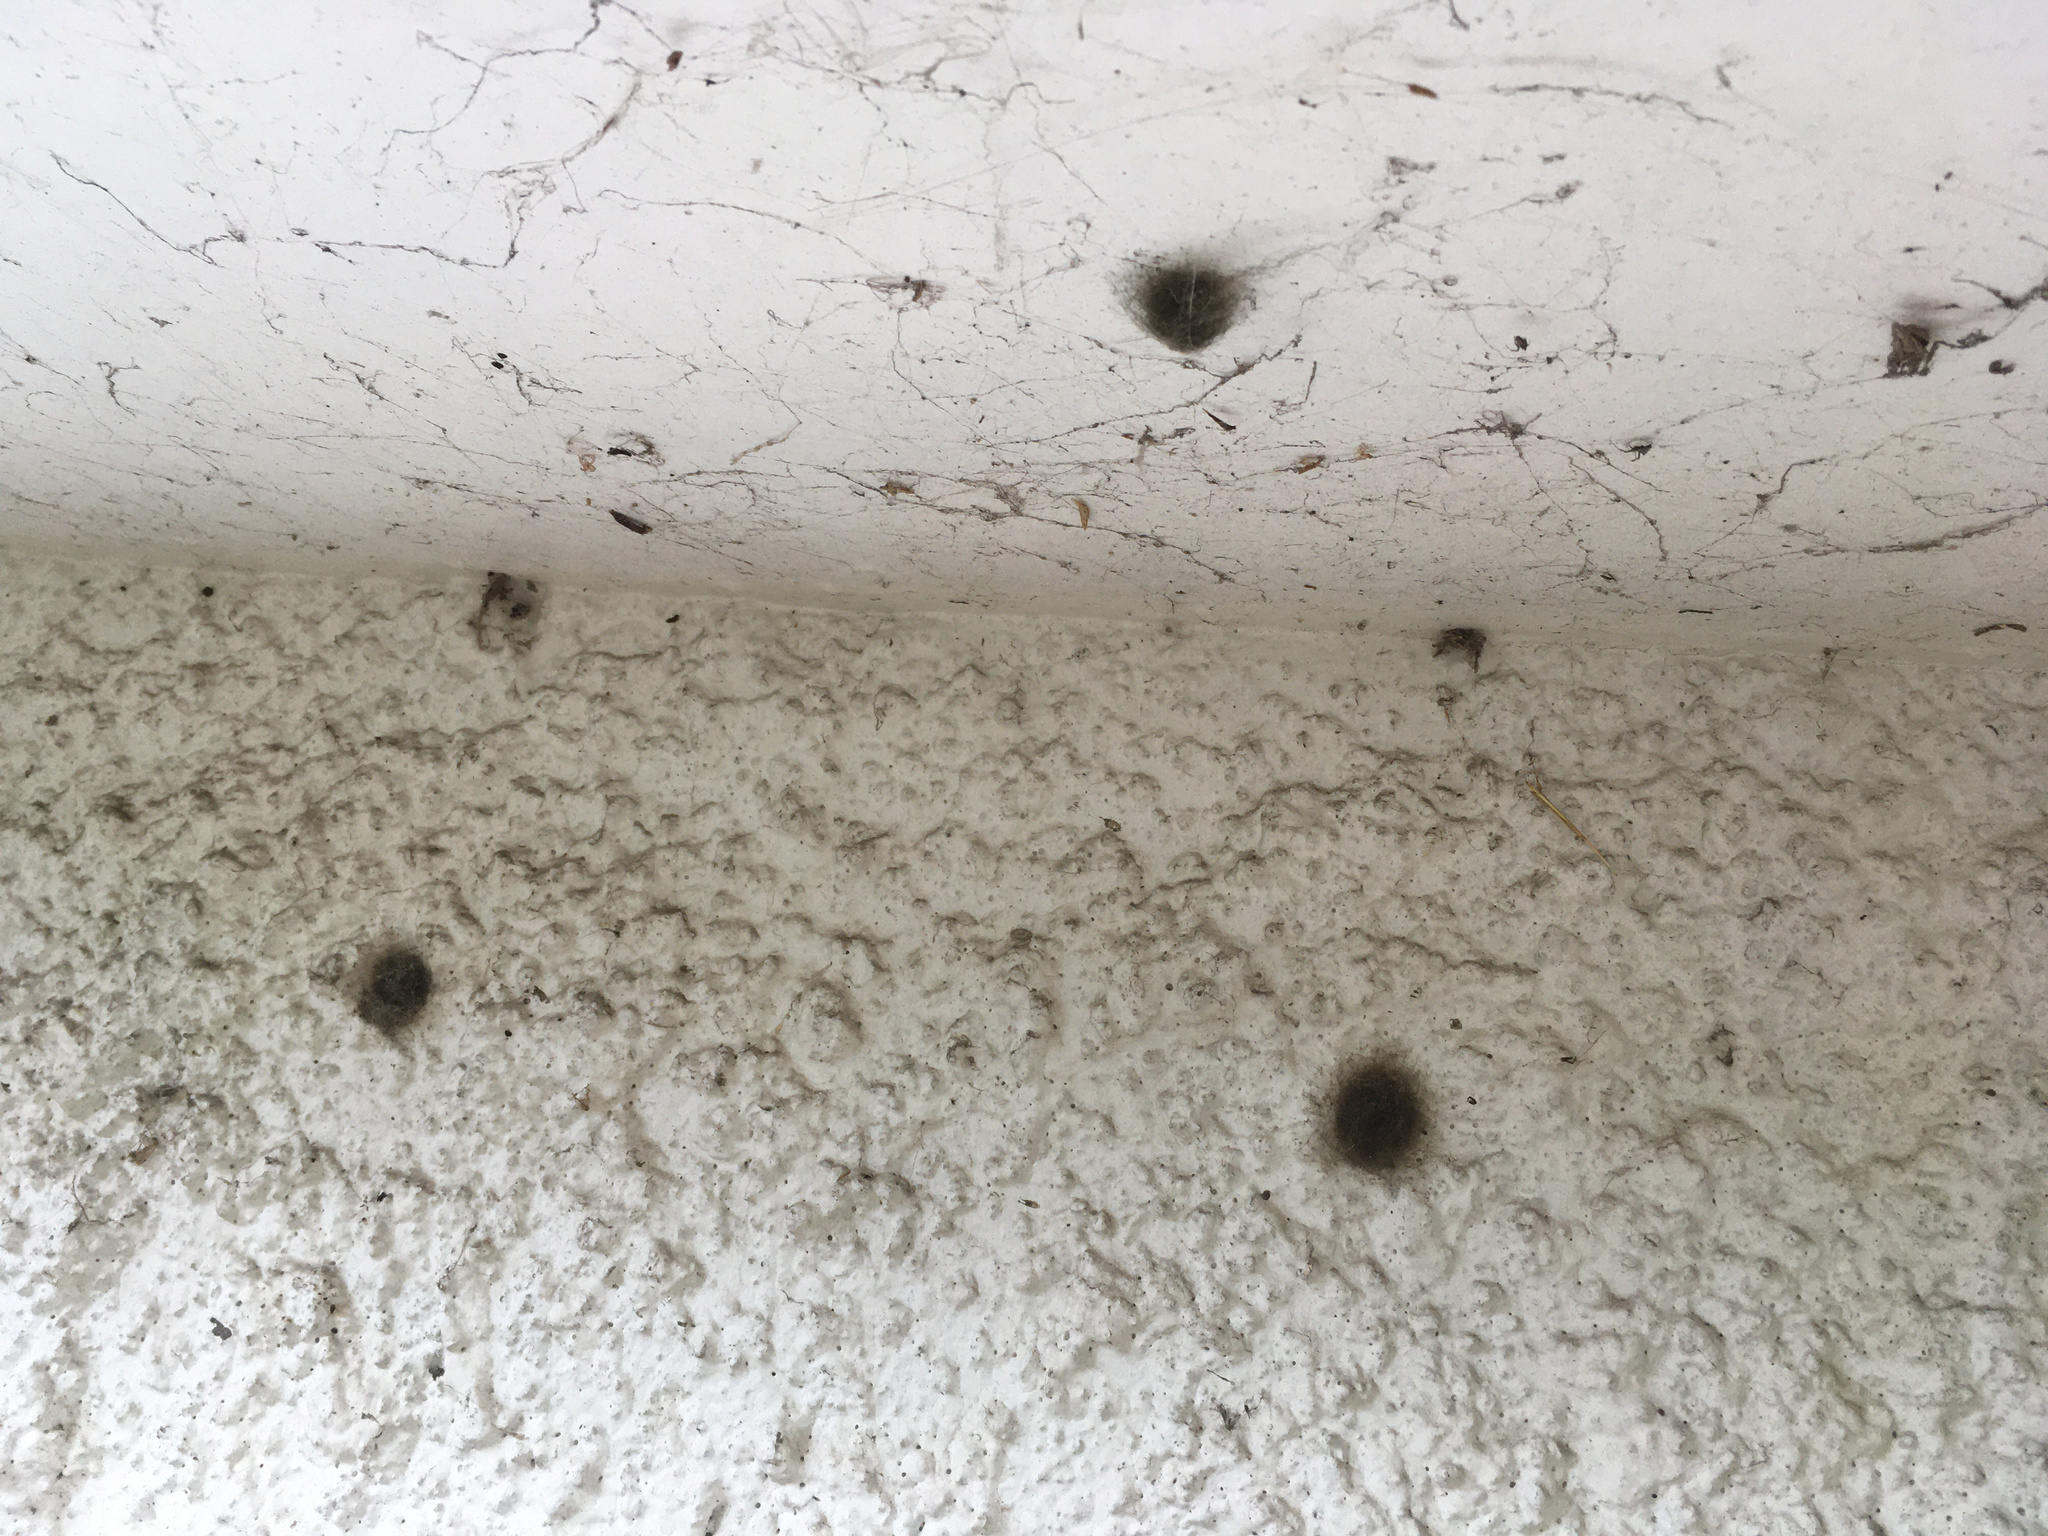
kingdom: Animalia
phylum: Arthropoda
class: Arachnida
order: Araneae
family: Araneidae
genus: Eriophora
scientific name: Eriophora pustulosa
